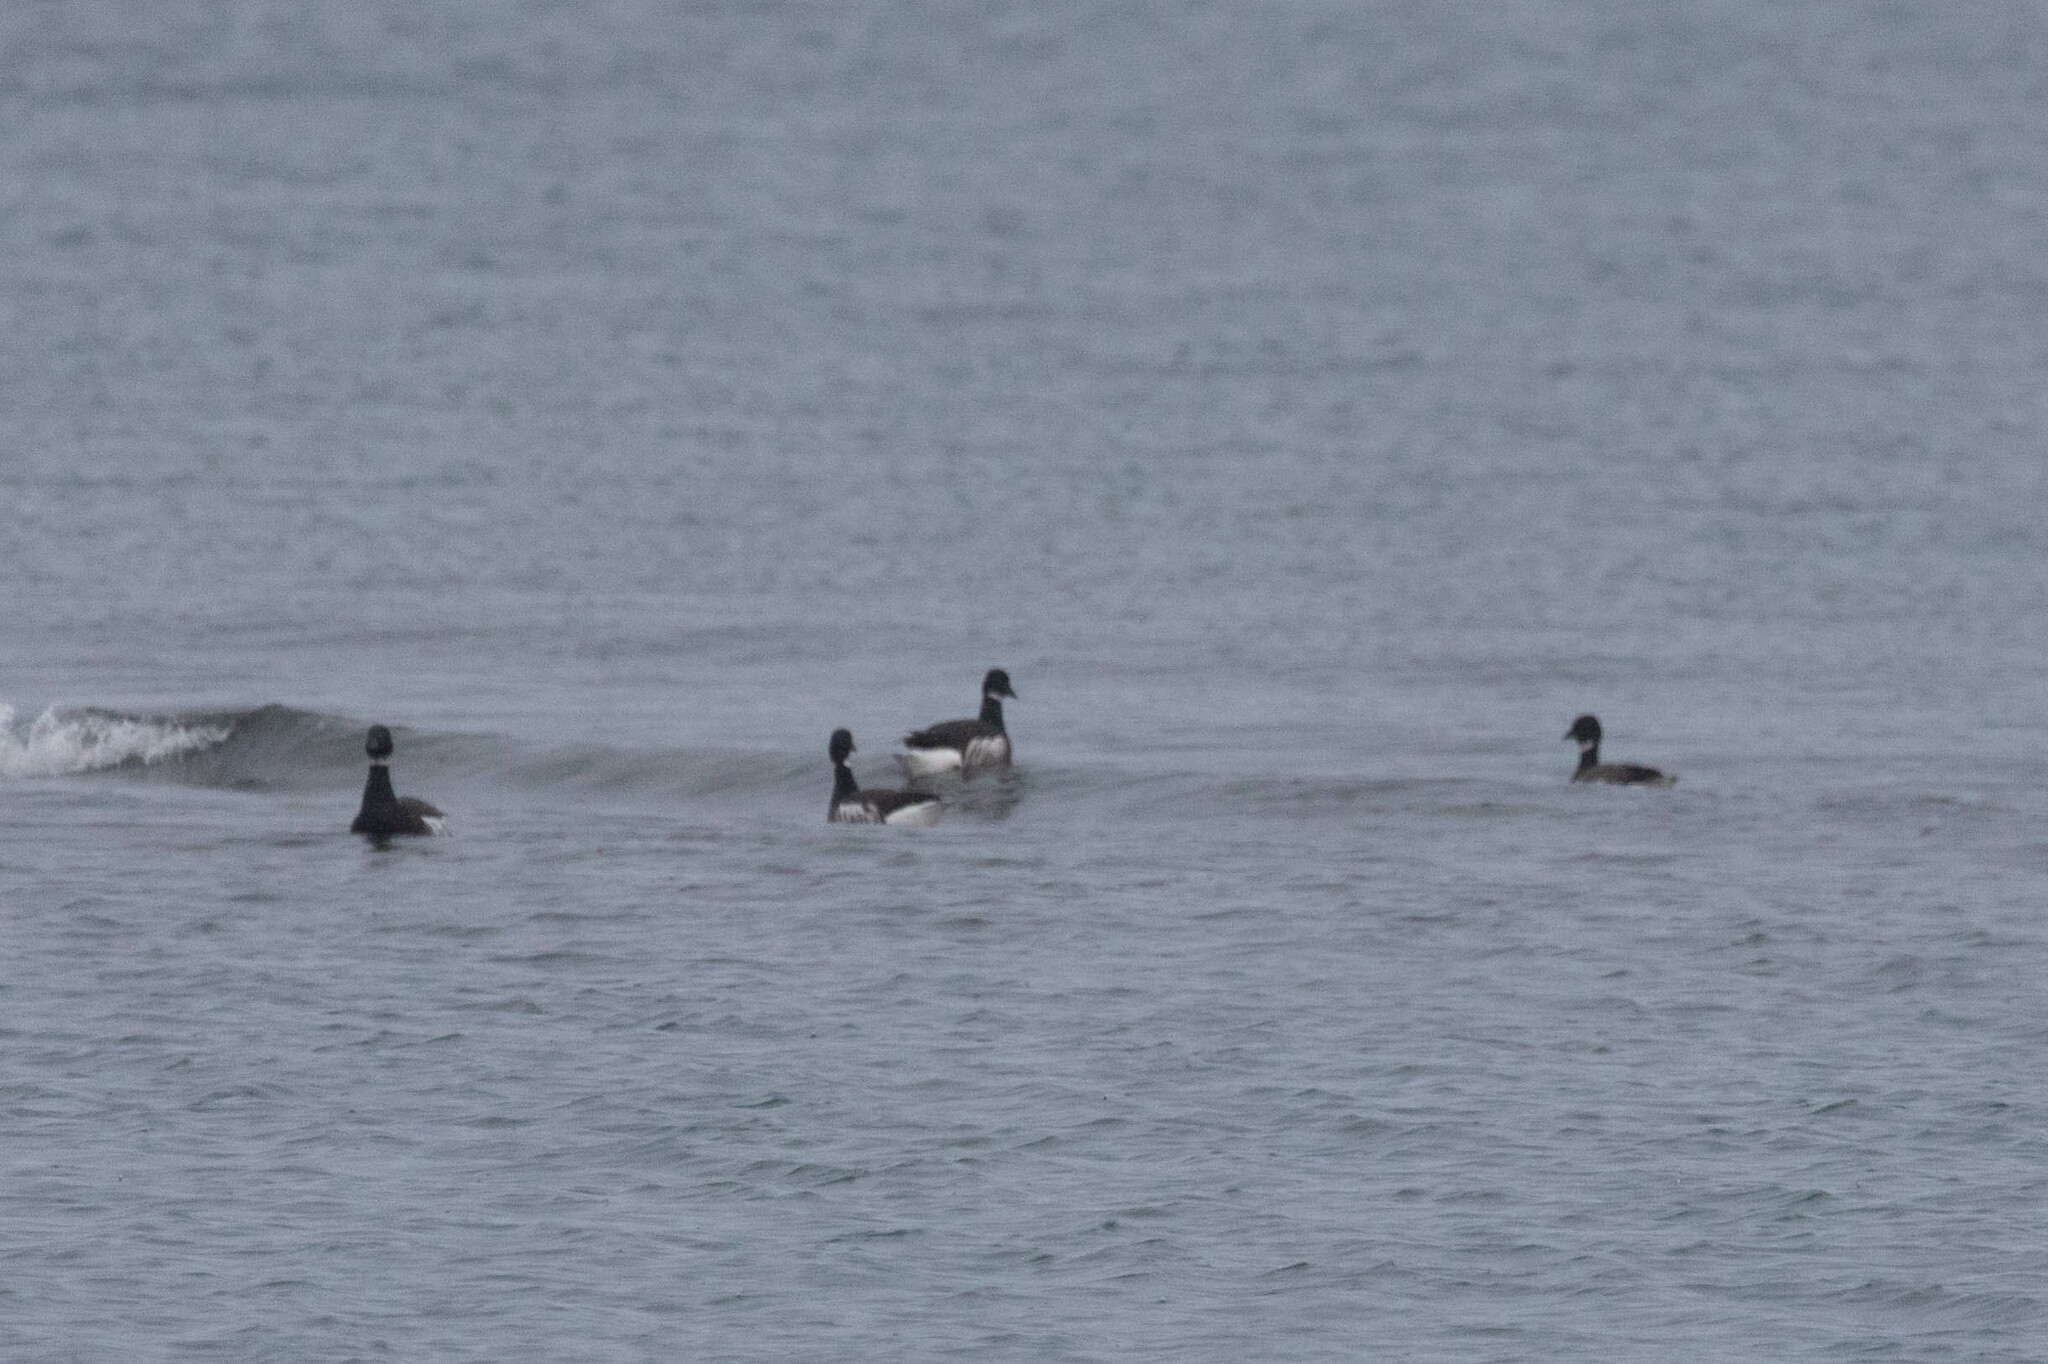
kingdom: Animalia
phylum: Chordata
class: Aves
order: Anseriformes
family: Anatidae
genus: Branta
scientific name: Branta bernicla
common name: Brant goose
